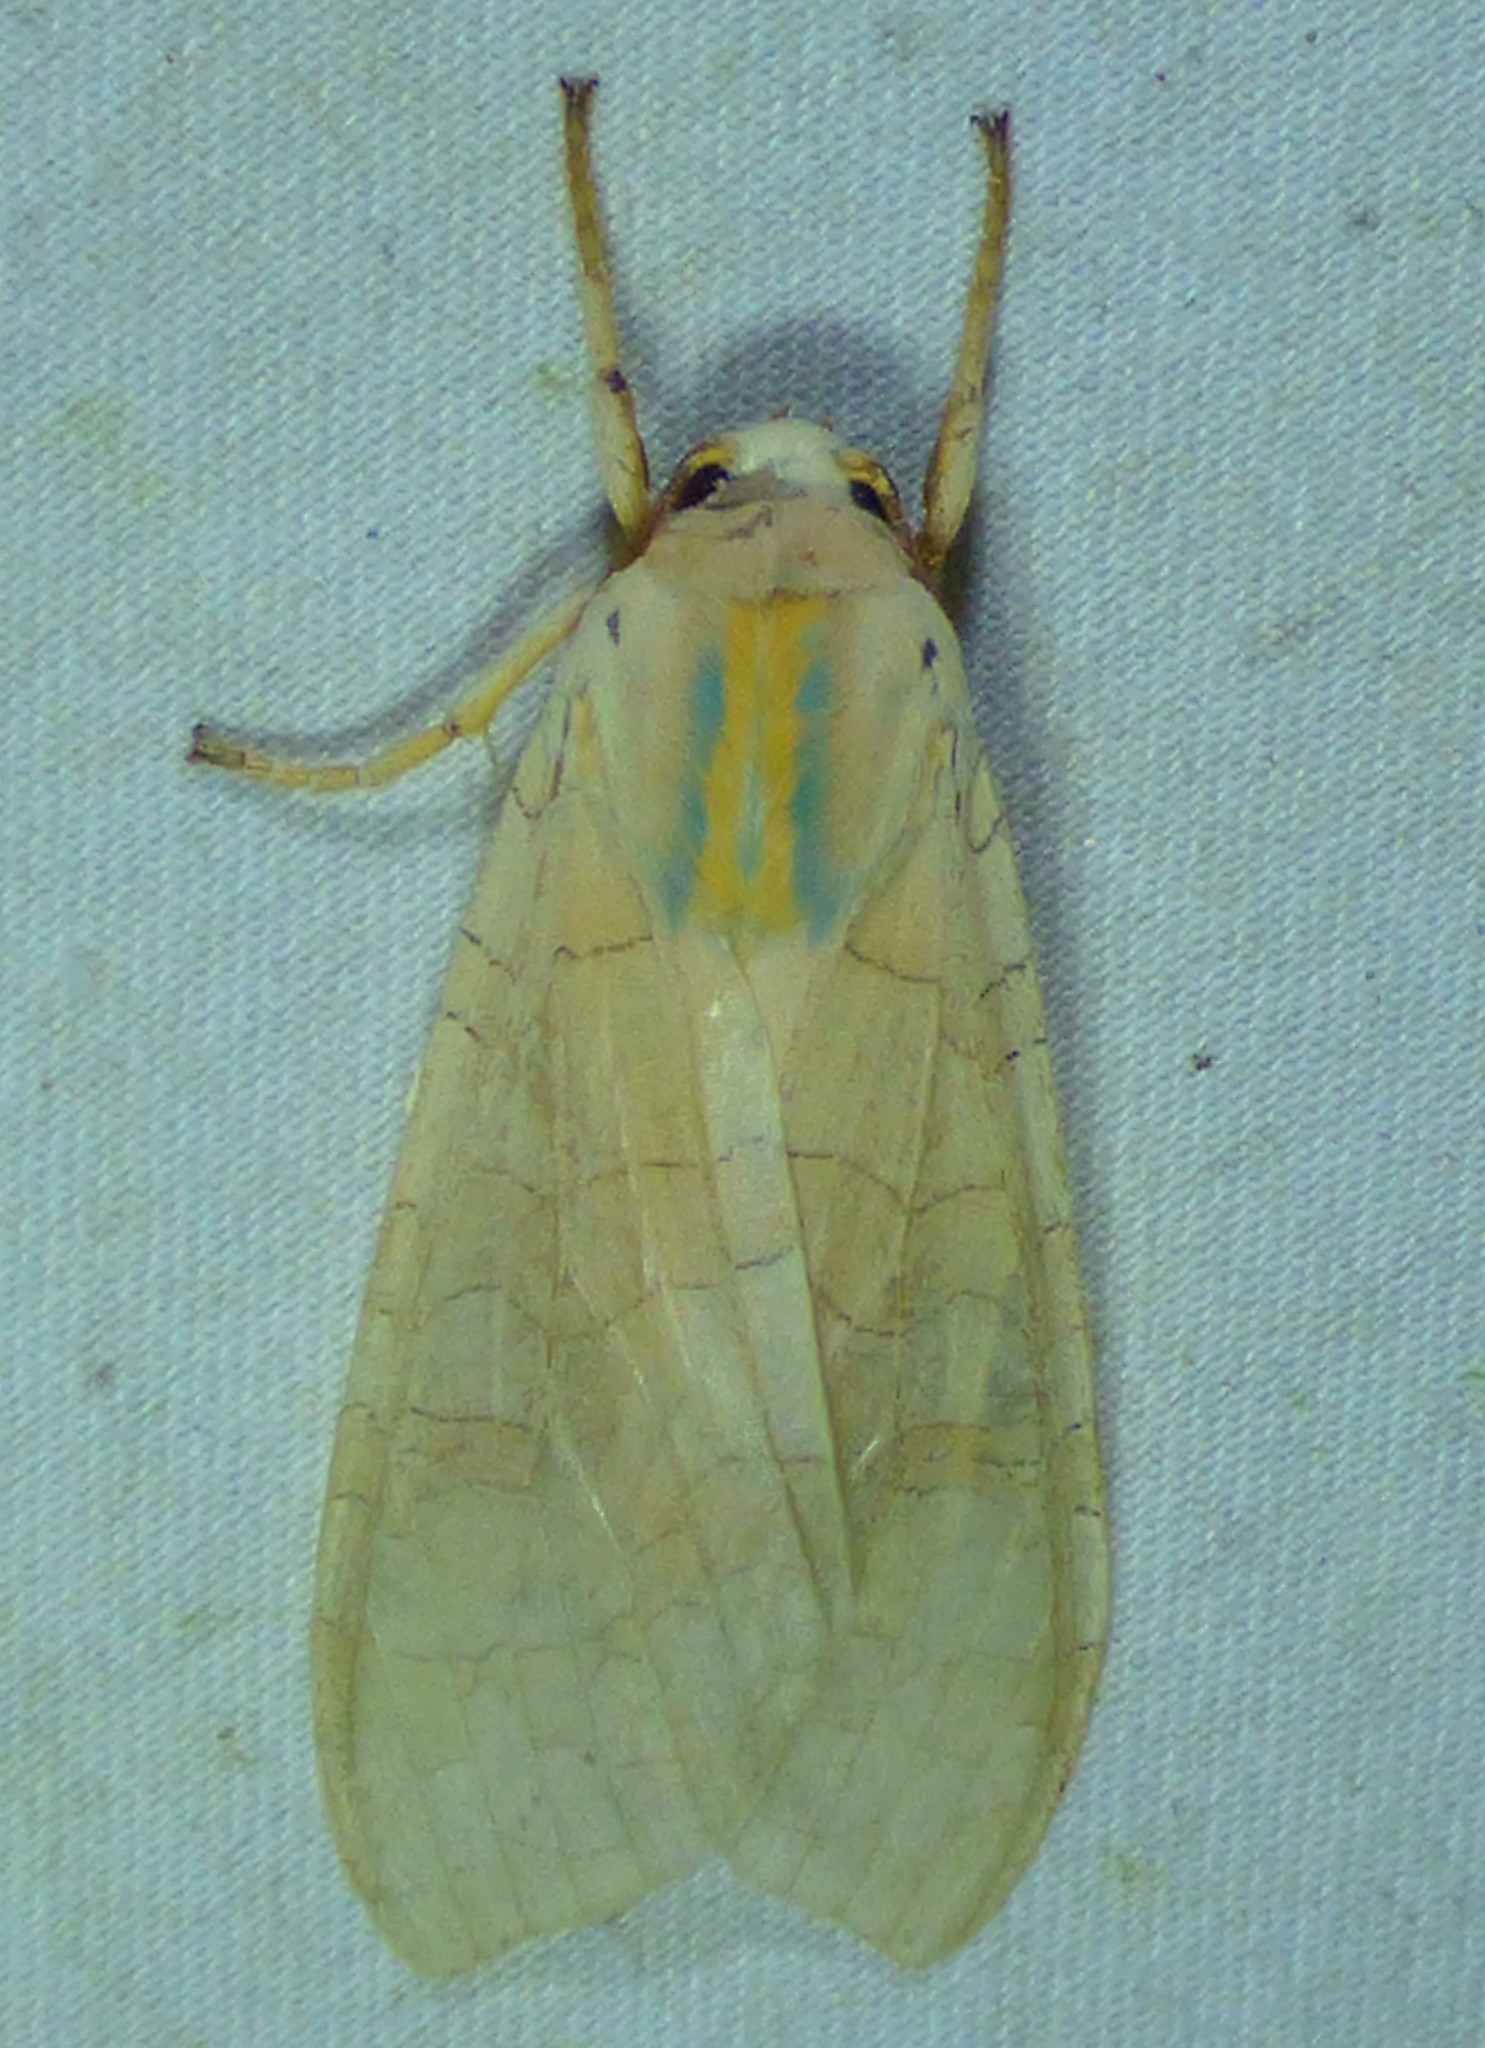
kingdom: Animalia
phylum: Arthropoda
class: Insecta
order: Lepidoptera
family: Erebidae
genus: Halysidota
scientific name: Halysidota
